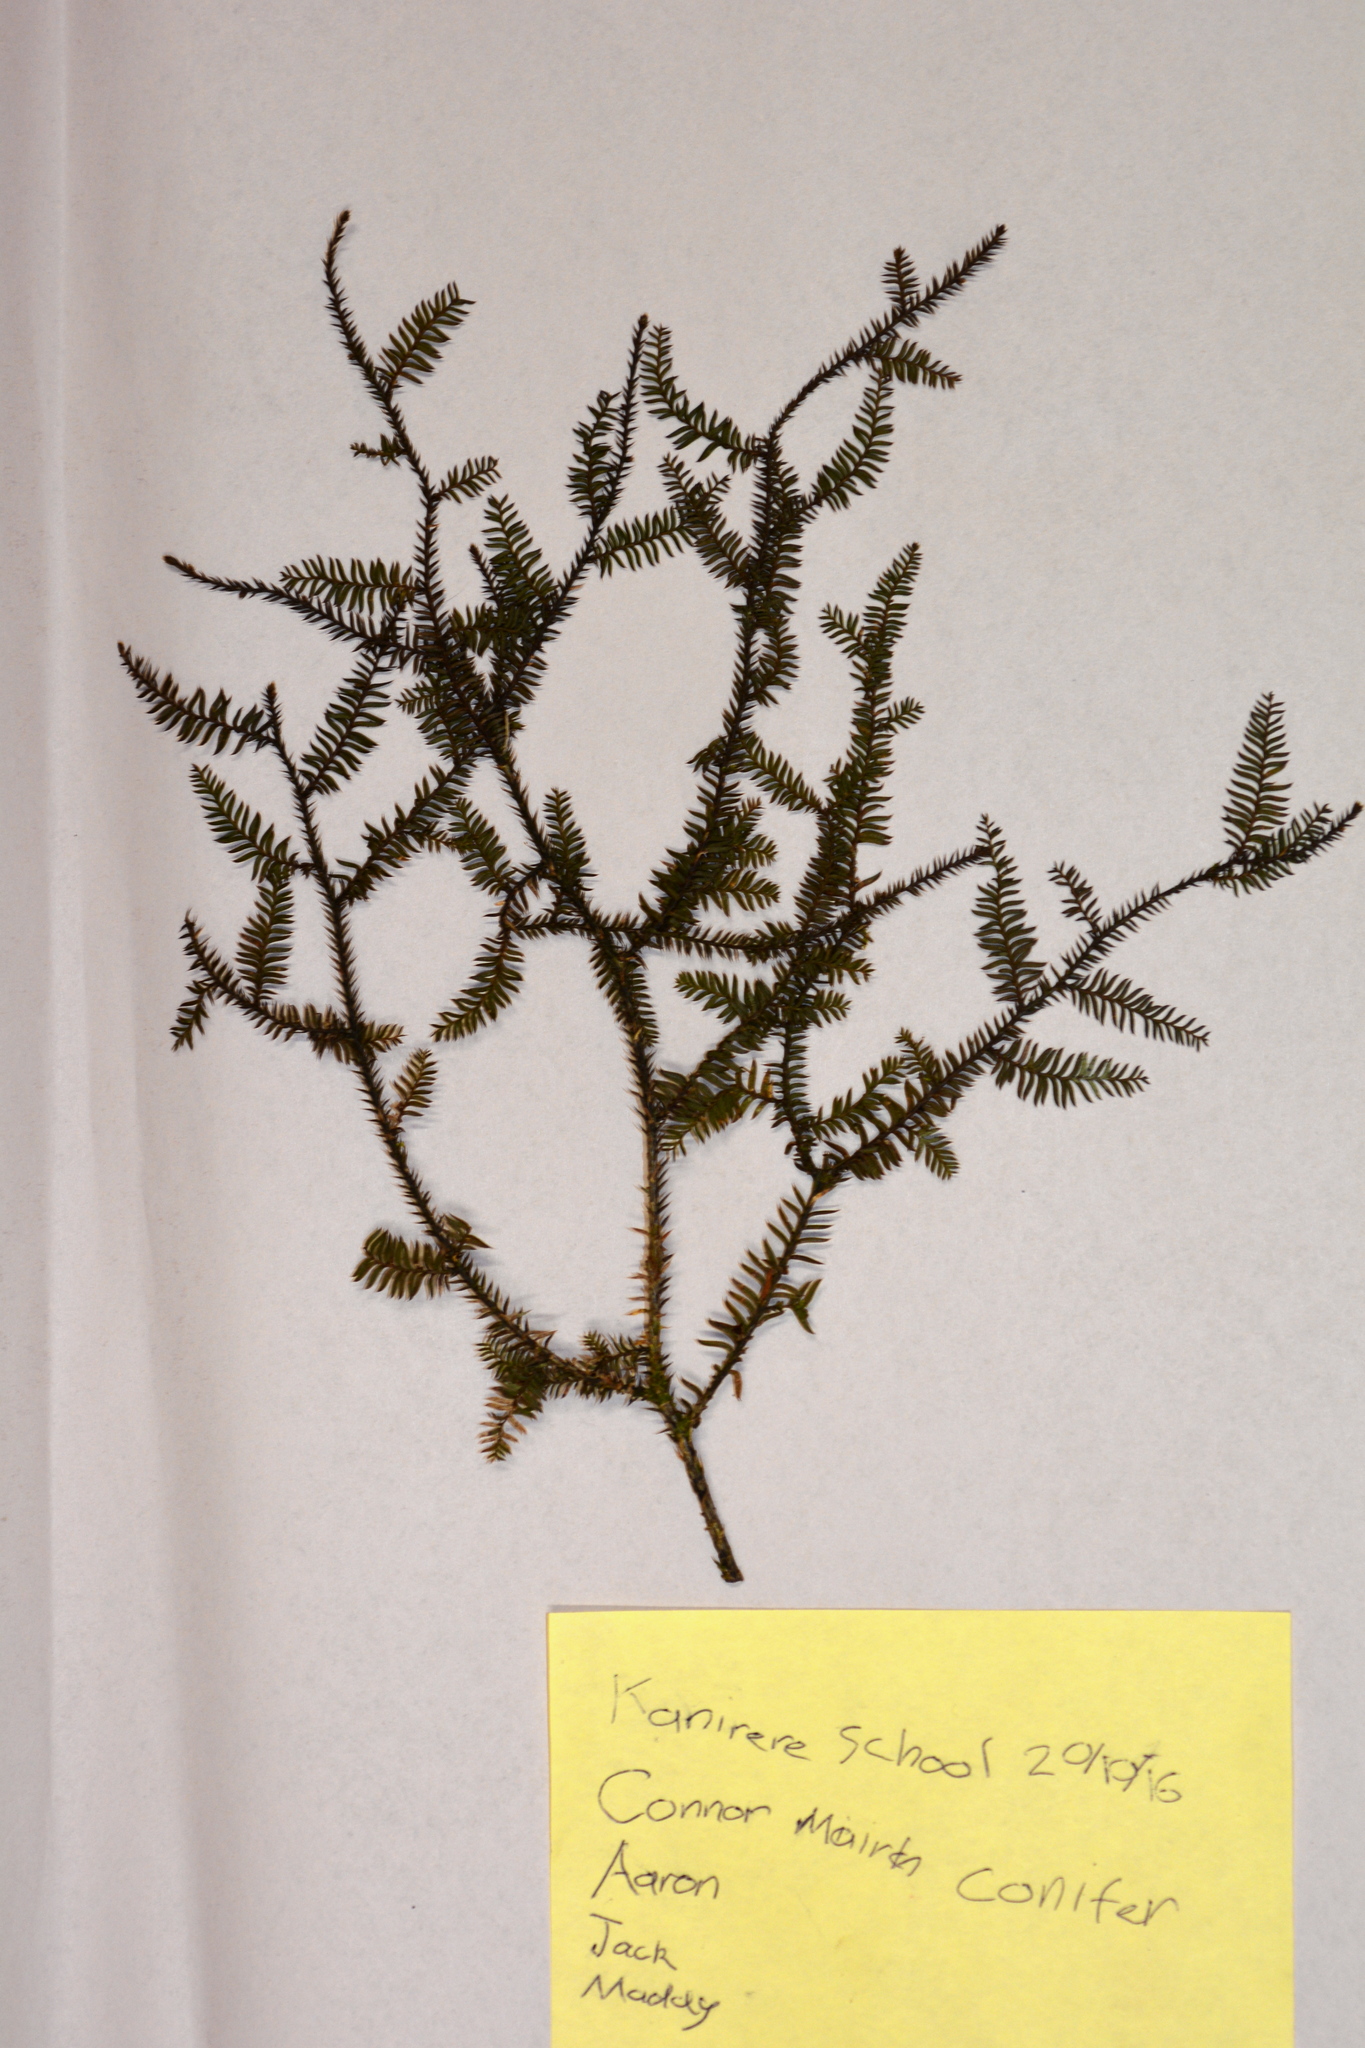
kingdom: Plantae
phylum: Tracheophyta
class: Pinopsida
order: Pinales
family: Podocarpaceae
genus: Dacrycarpus
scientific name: Dacrycarpus dacrydioides
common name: White pine
